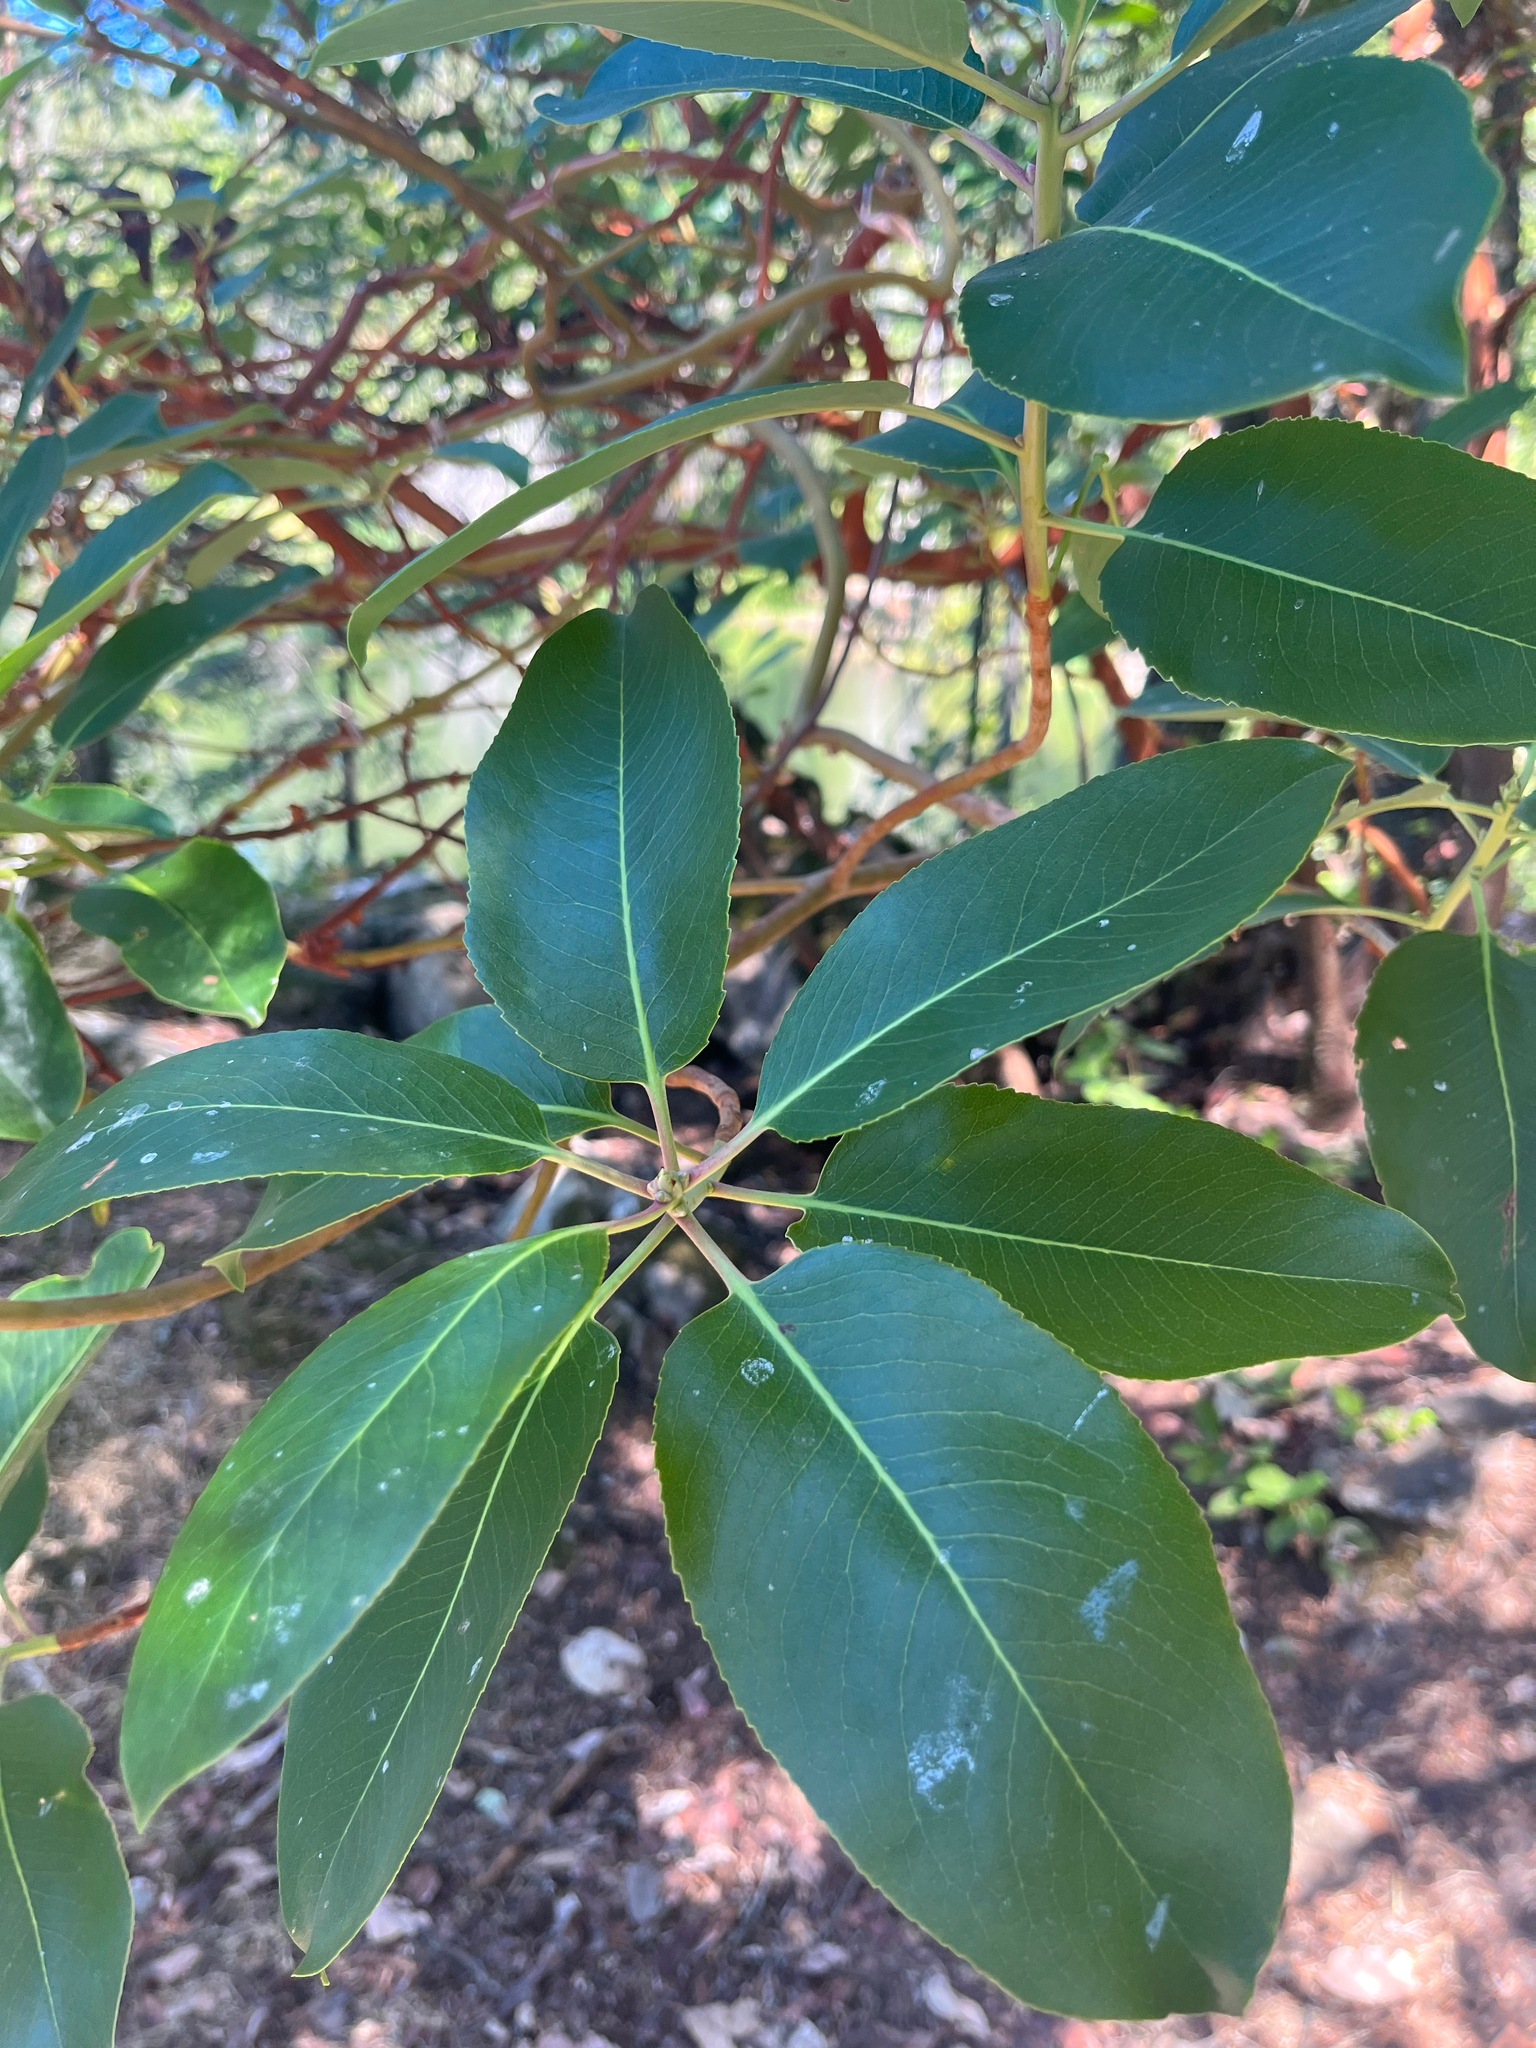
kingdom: Plantae
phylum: Tracheophyta
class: Magnoliopsida
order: Ericales
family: Ericaceae
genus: Arbutus
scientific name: Arbutus menziesii
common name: Pacific madrone
